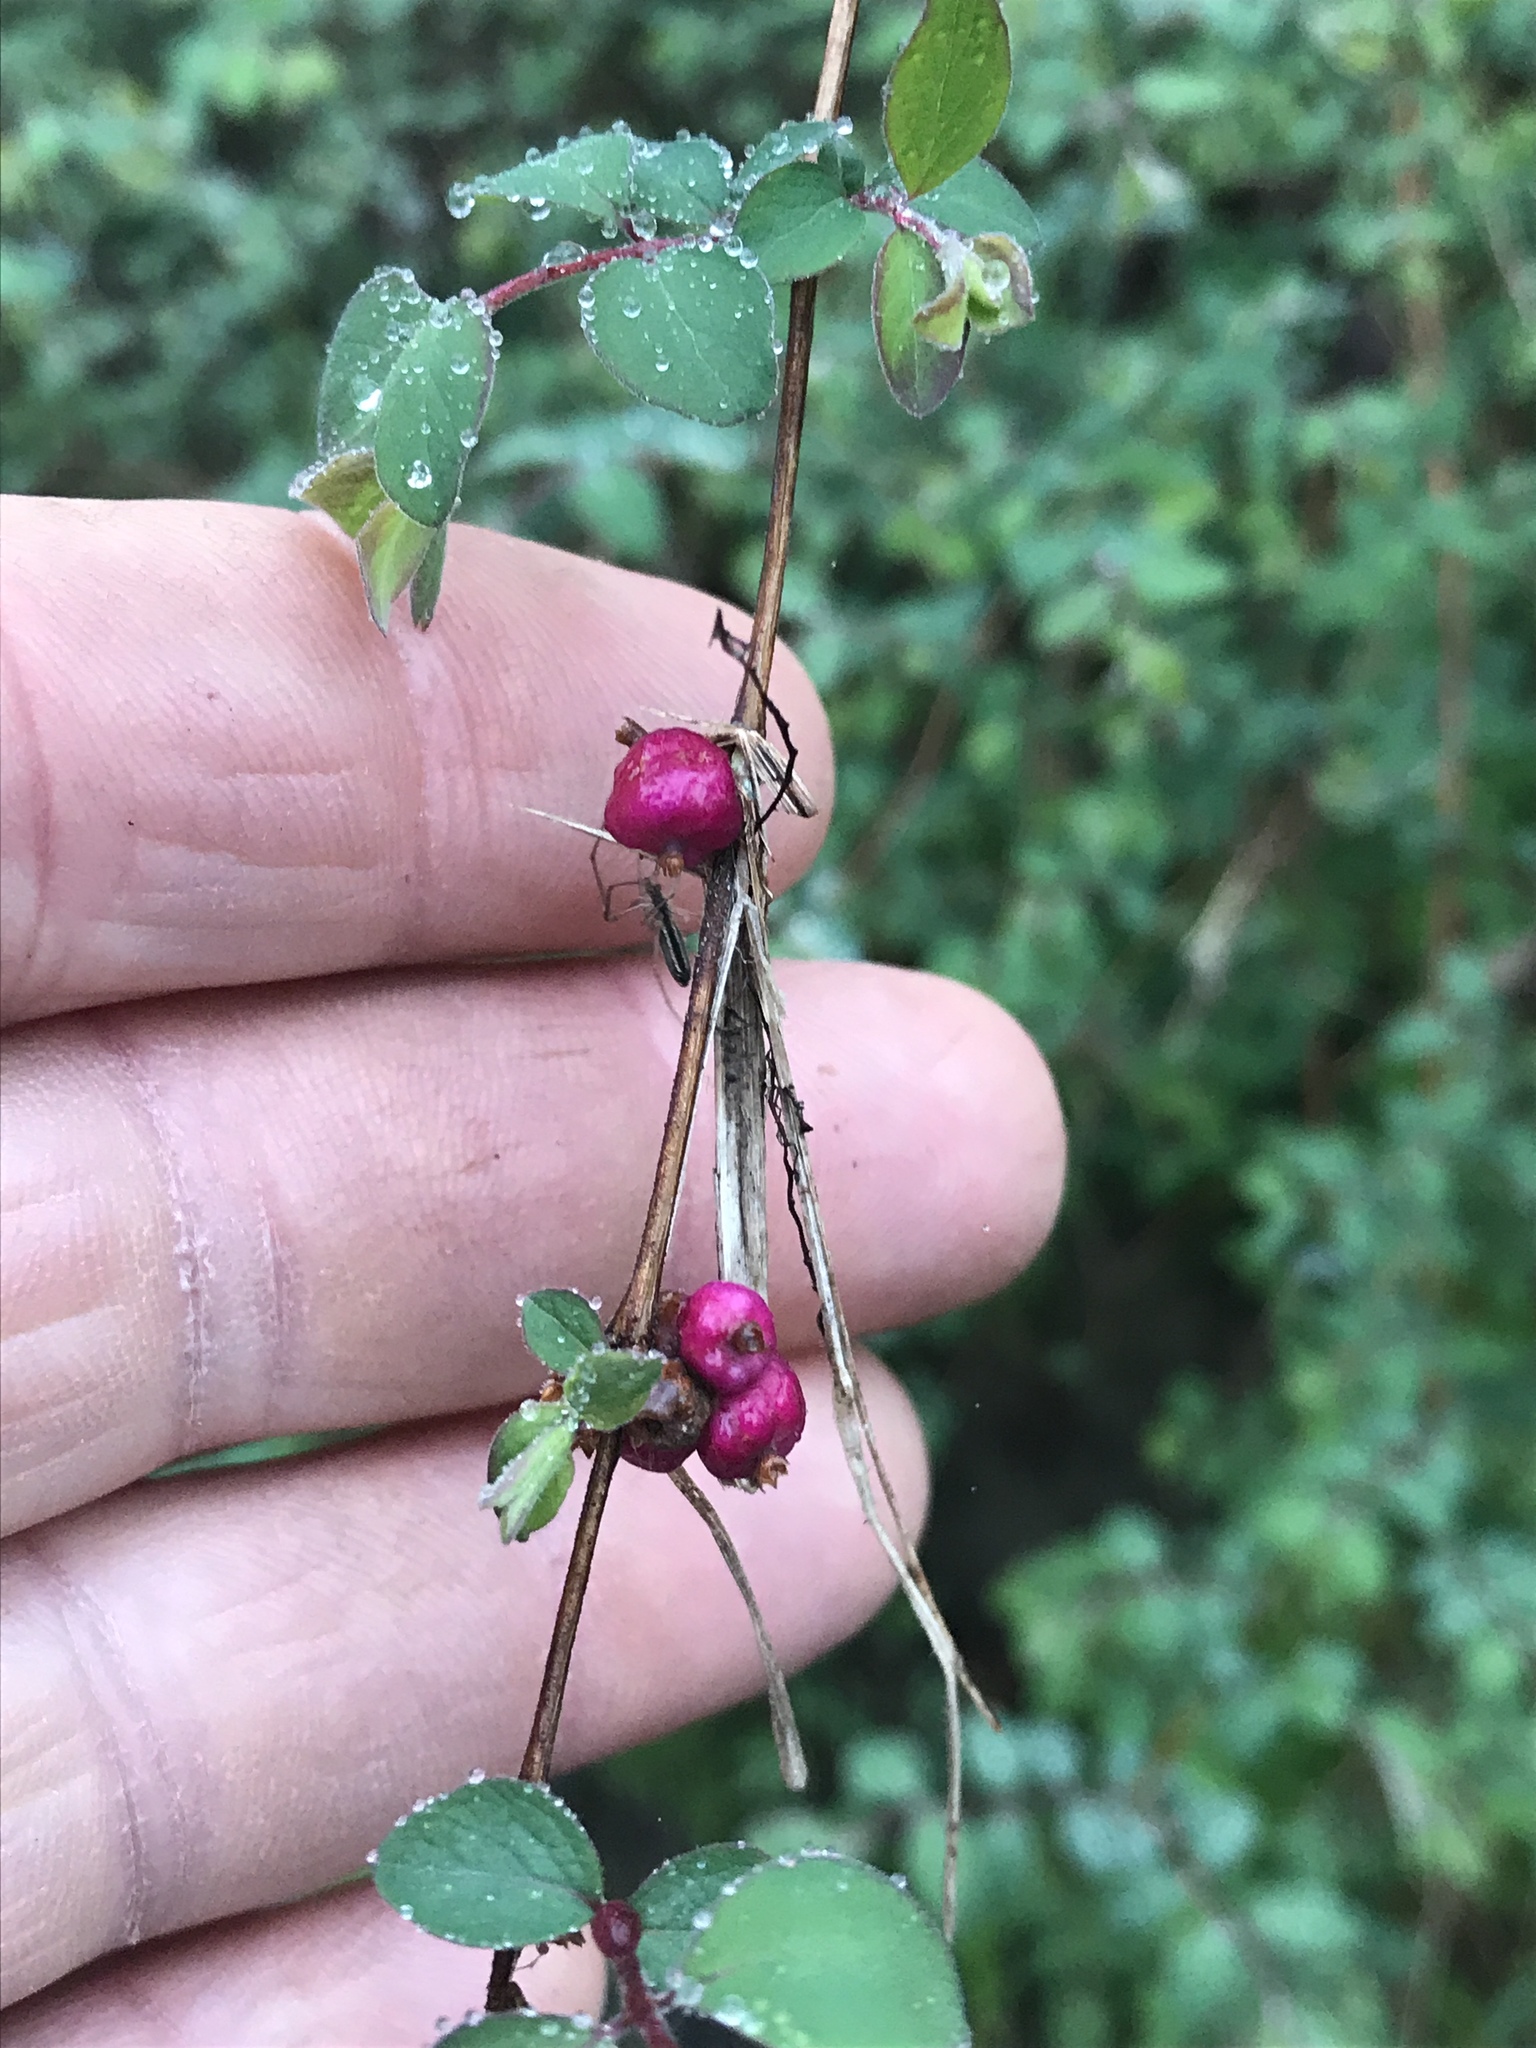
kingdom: Plantae
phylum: Tracheophyta
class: Magnoliopsida
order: Dipsacales
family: Caprifoliaceae
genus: Symphoricarpos
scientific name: Symphoricarpos orbiculatus
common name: Coralberry
